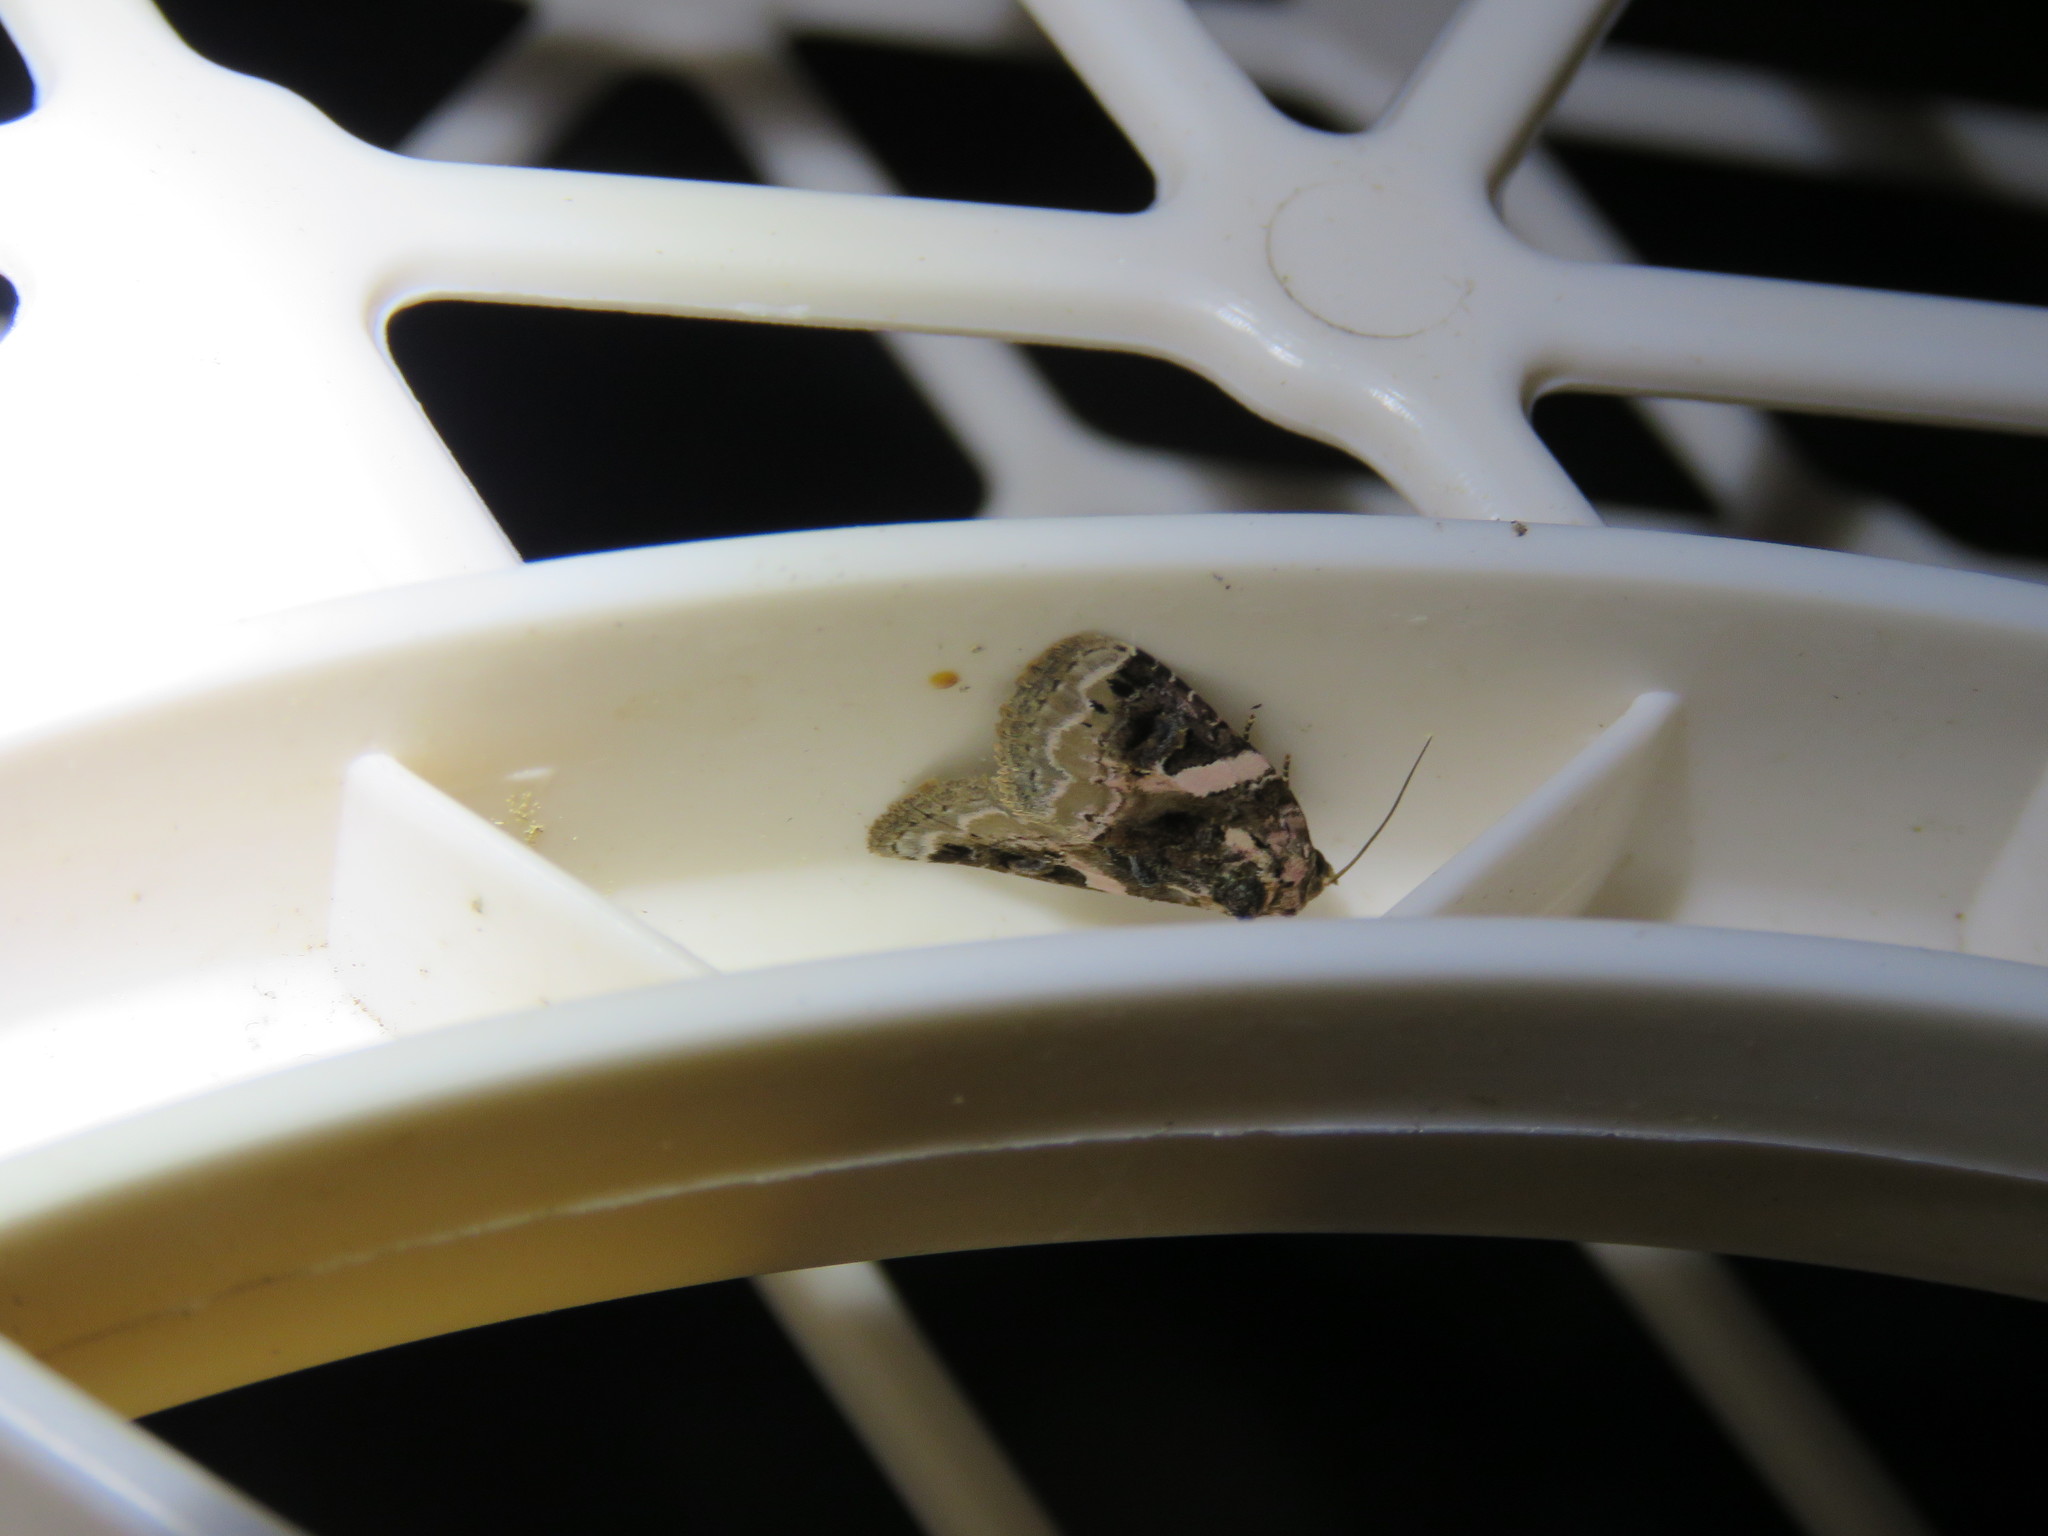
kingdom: Animalia
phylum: Arthropoda
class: Insecta
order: Lepidoptera
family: Noctuidae
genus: Pseudeustrotia
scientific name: Pseudeustrotia carneola
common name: Pink-barred lithacodia moth
